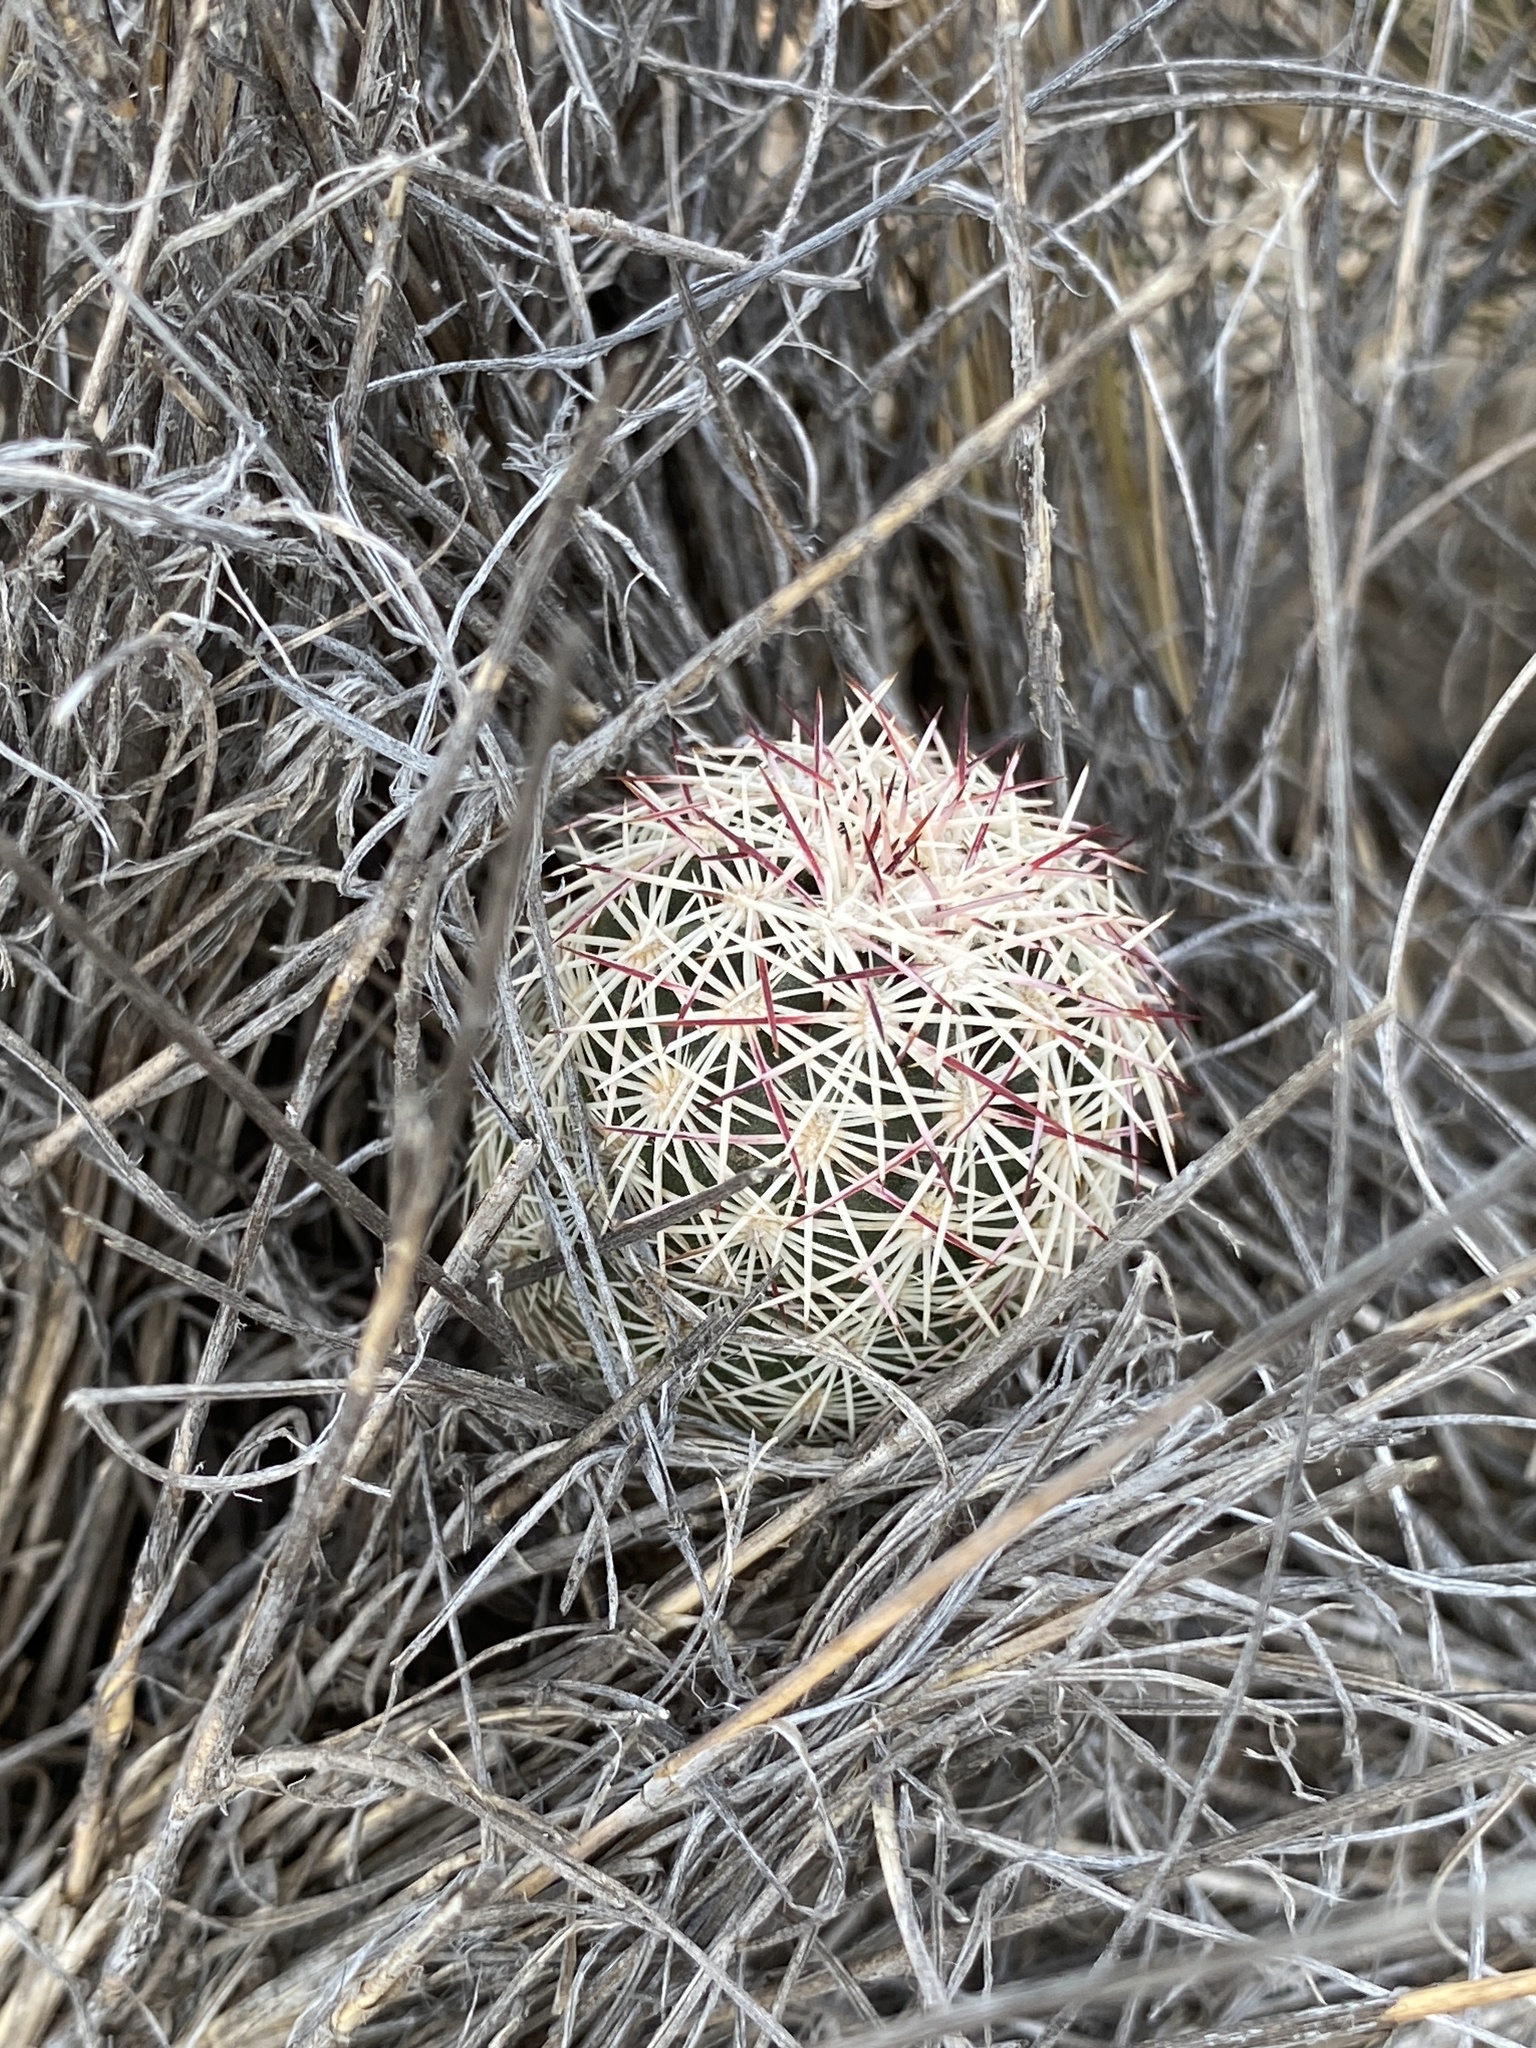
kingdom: Plantae
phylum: Tracheophyta
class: Magnoliopsida
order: Caryophyllales
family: Cactaceae
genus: Echinocereus
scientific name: Echinocereus viridiflorus
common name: Nylon hedgehog cactus
